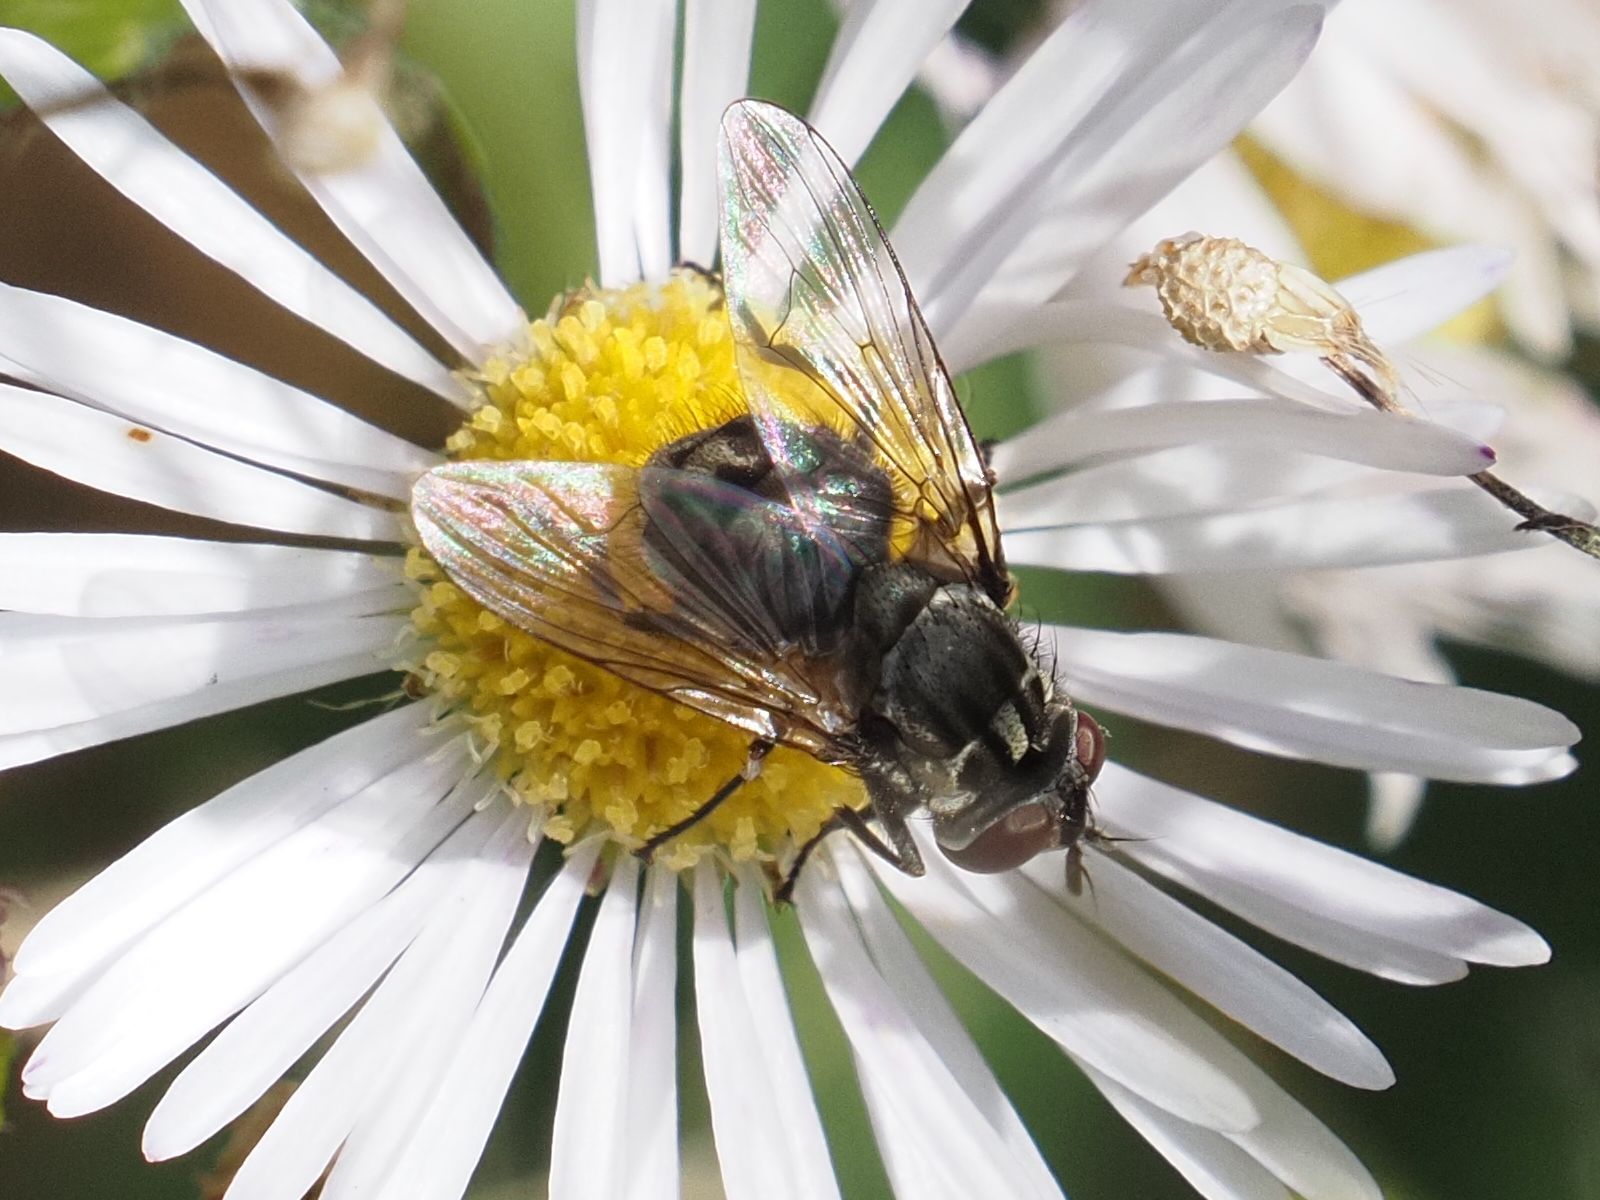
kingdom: Animalia
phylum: Arthropoda
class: Insecta
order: Diptera
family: Muscidae
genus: Stomoxys
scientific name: Stomoxys calcitrans
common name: Stable fly
